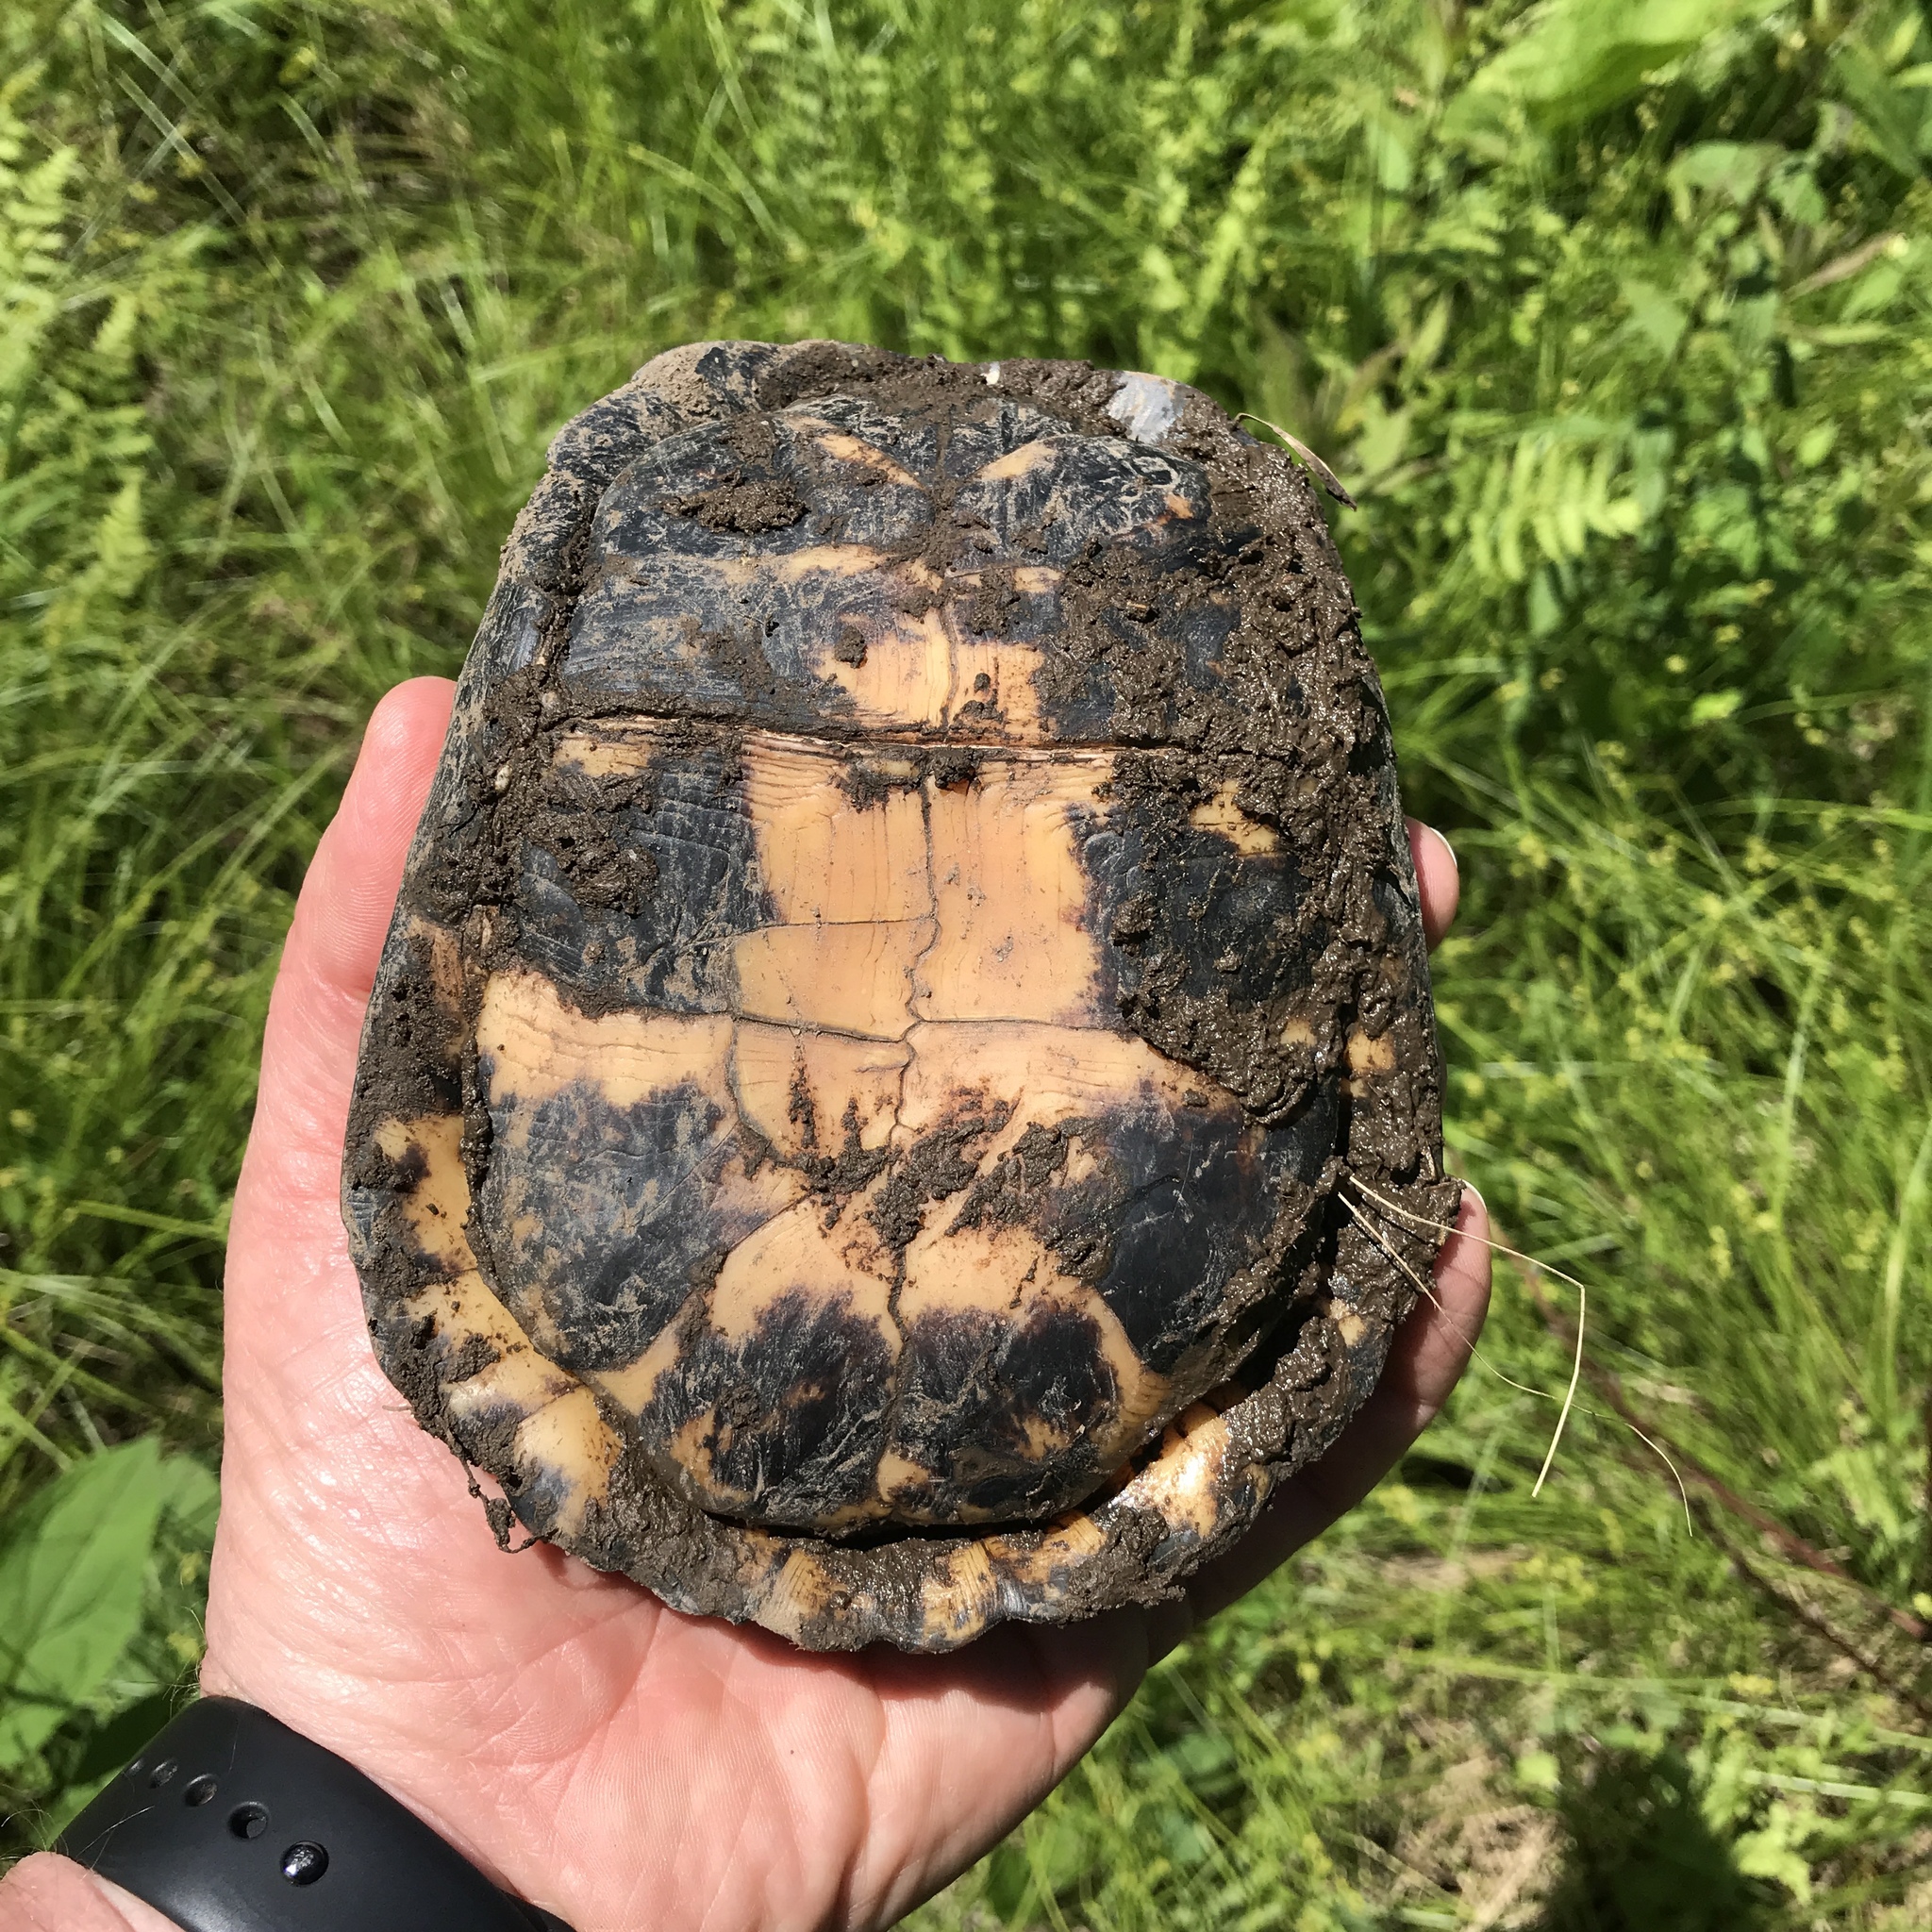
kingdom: Animalia
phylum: Chordata
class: Testudines
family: Emydidae
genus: Terrapene
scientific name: Terrapene carolina
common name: Common box turtle
